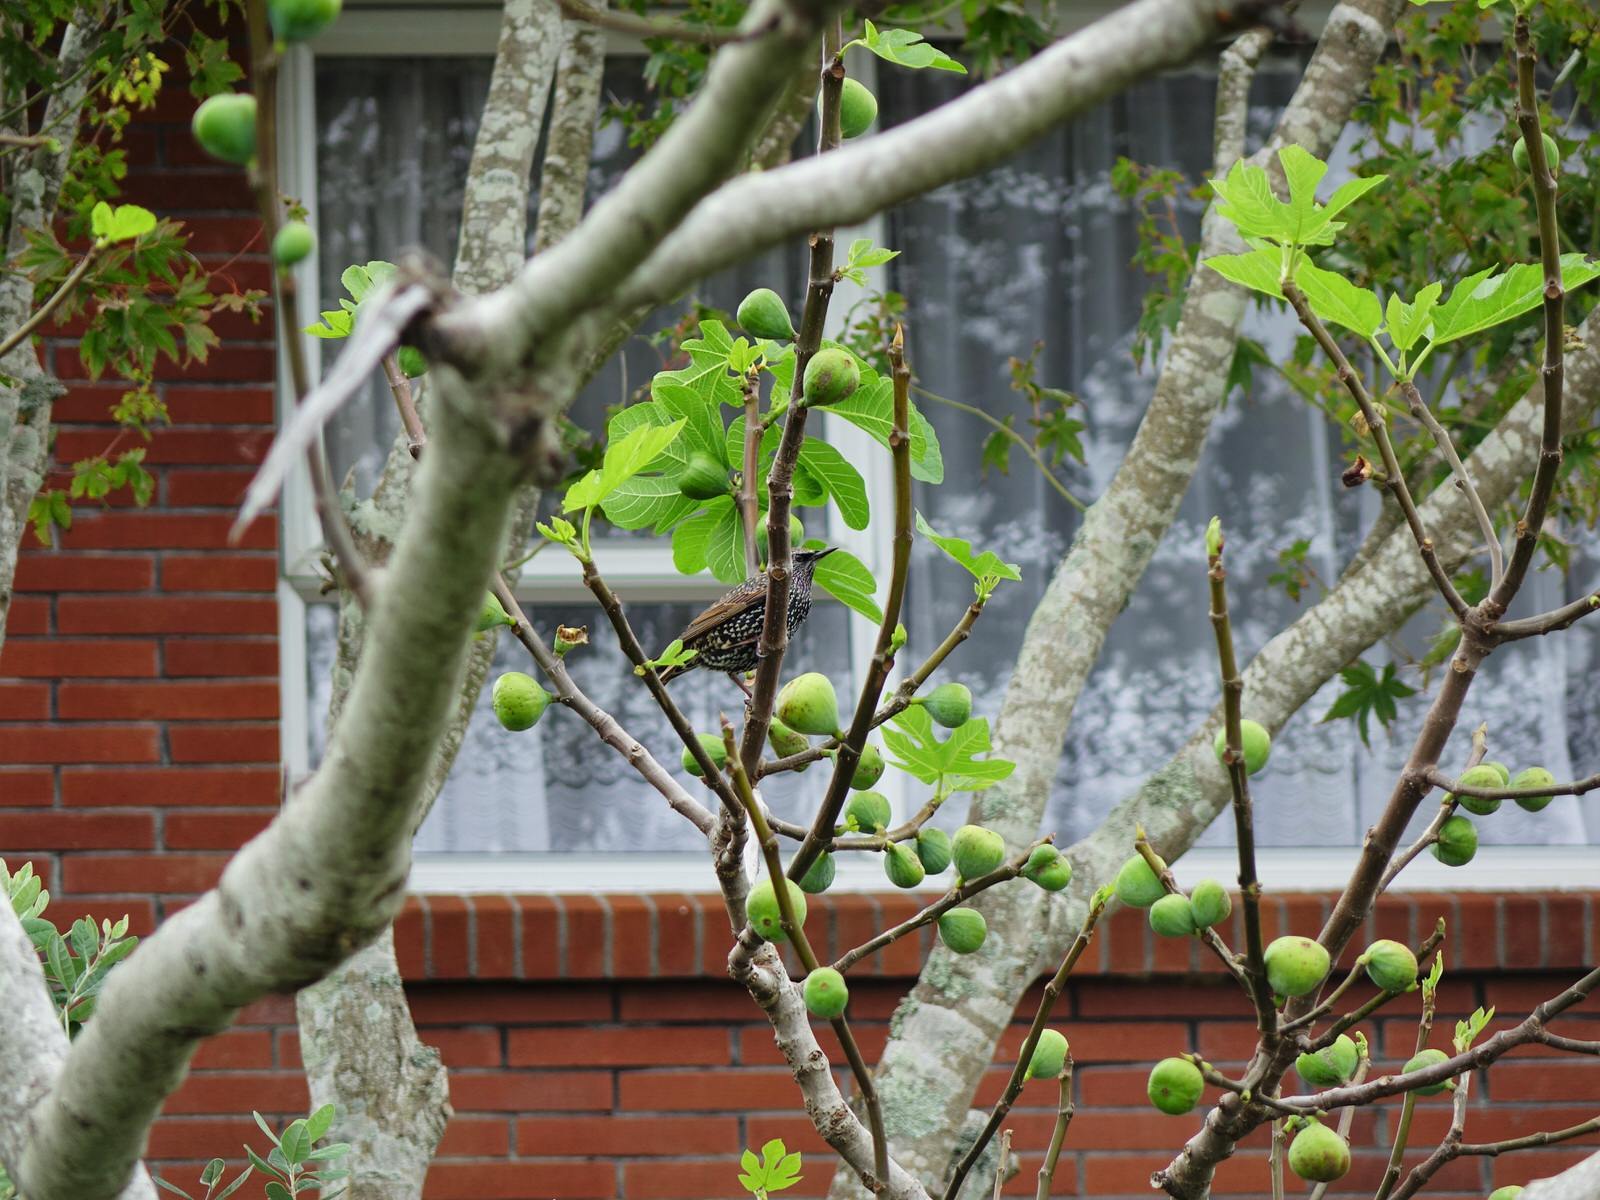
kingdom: Animalia
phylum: Chordata
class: Aves
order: Passeriformes
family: Sturnidae
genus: Sturnus
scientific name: Sturnus vulgaris
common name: Common starling
